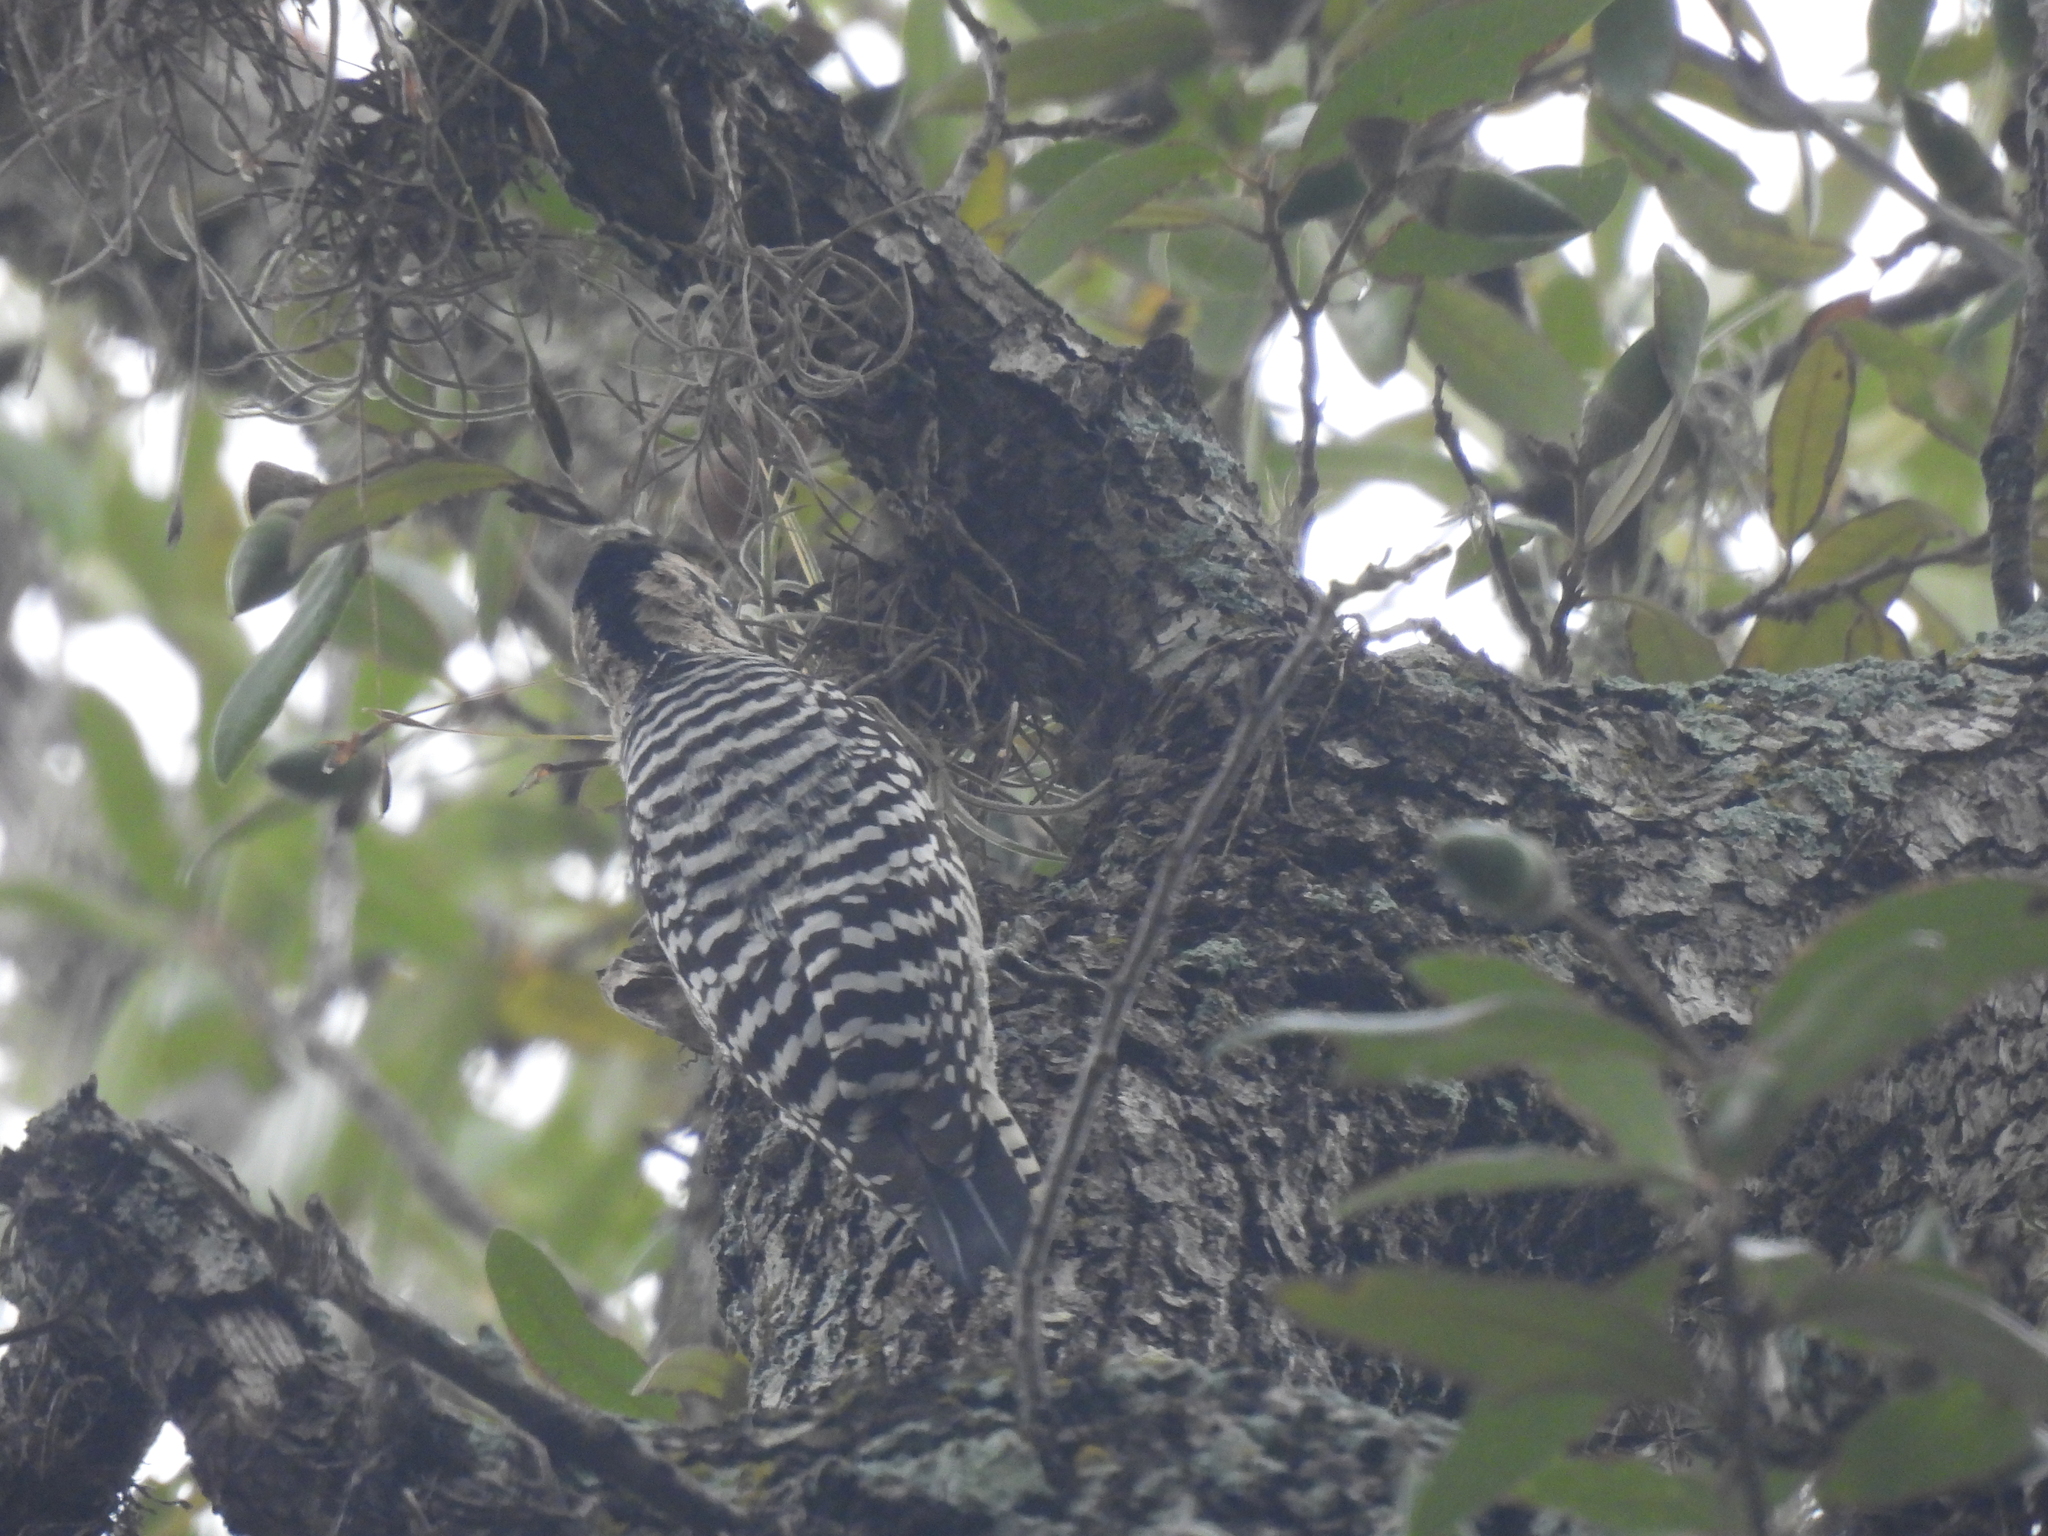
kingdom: Animalia
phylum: Chordata
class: Aves
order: Piciformes
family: Picidae
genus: Dryobates
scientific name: Dryobates scalaris
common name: Ladder-backed woodpecker
